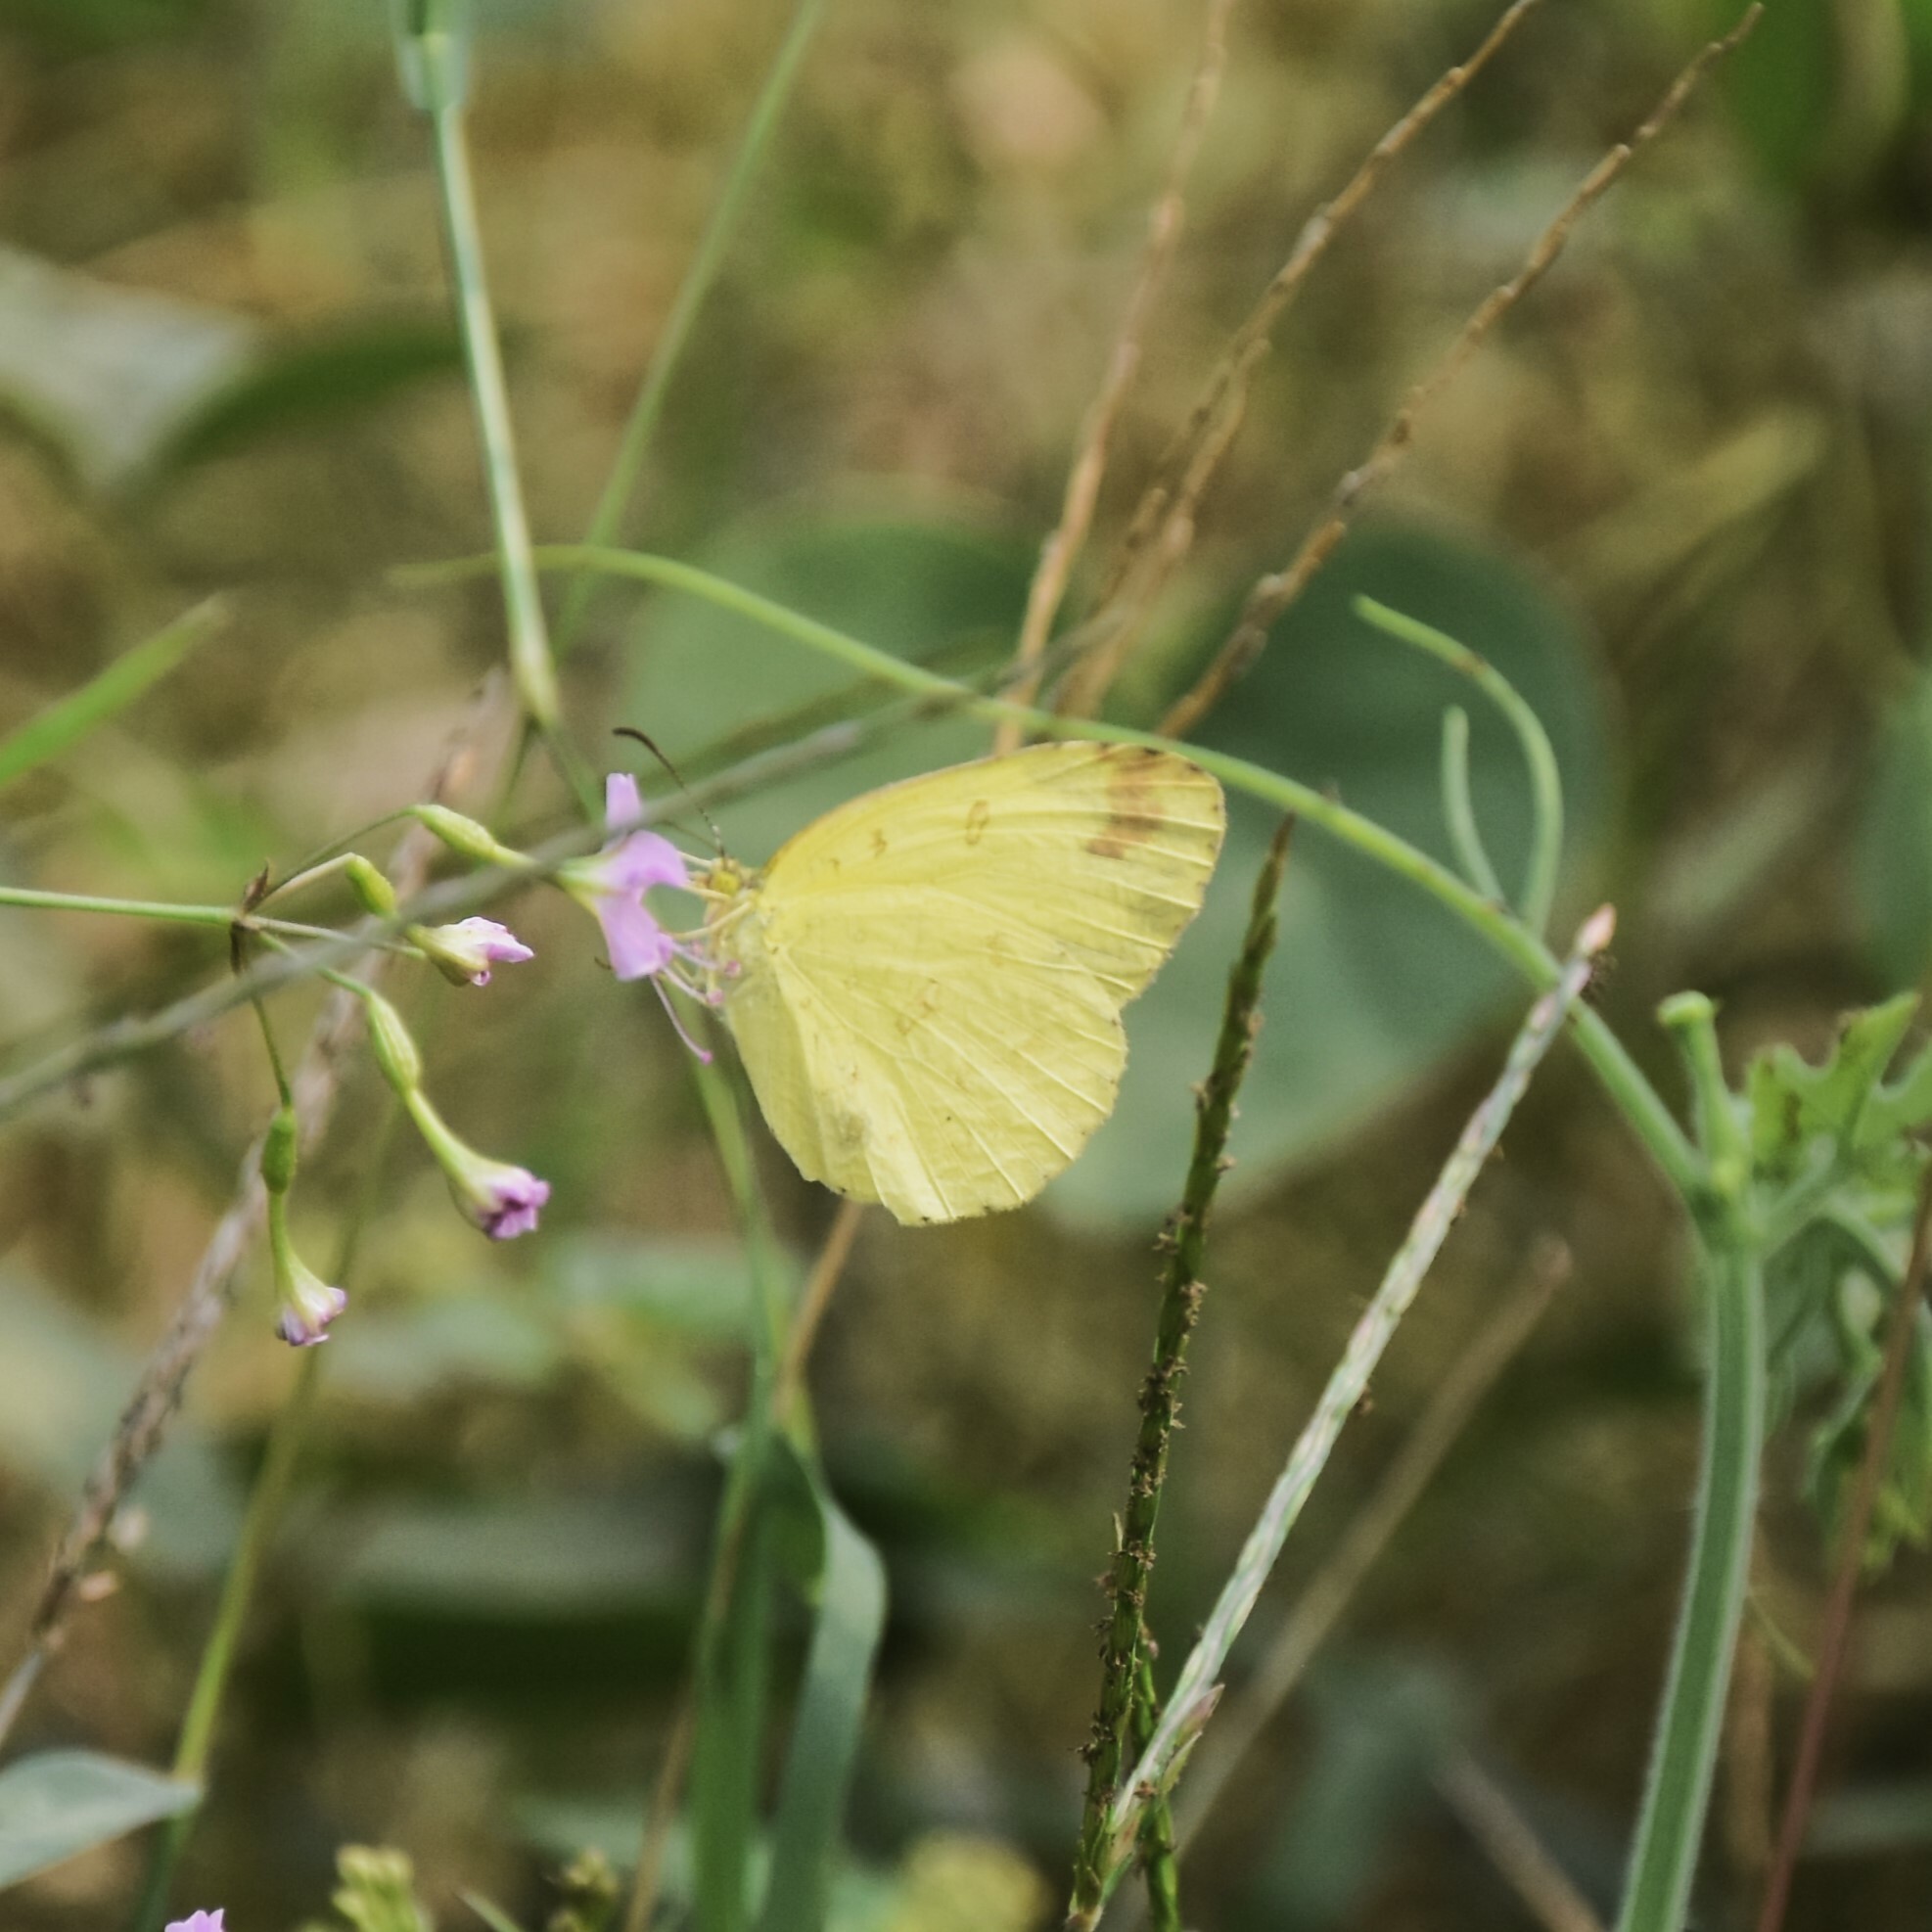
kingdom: Animalia
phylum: Arthropoda
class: Insecta
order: Lepidoptera
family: Pieridae
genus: Eurema
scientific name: Eurema hecabe
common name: Pale grass yellow
